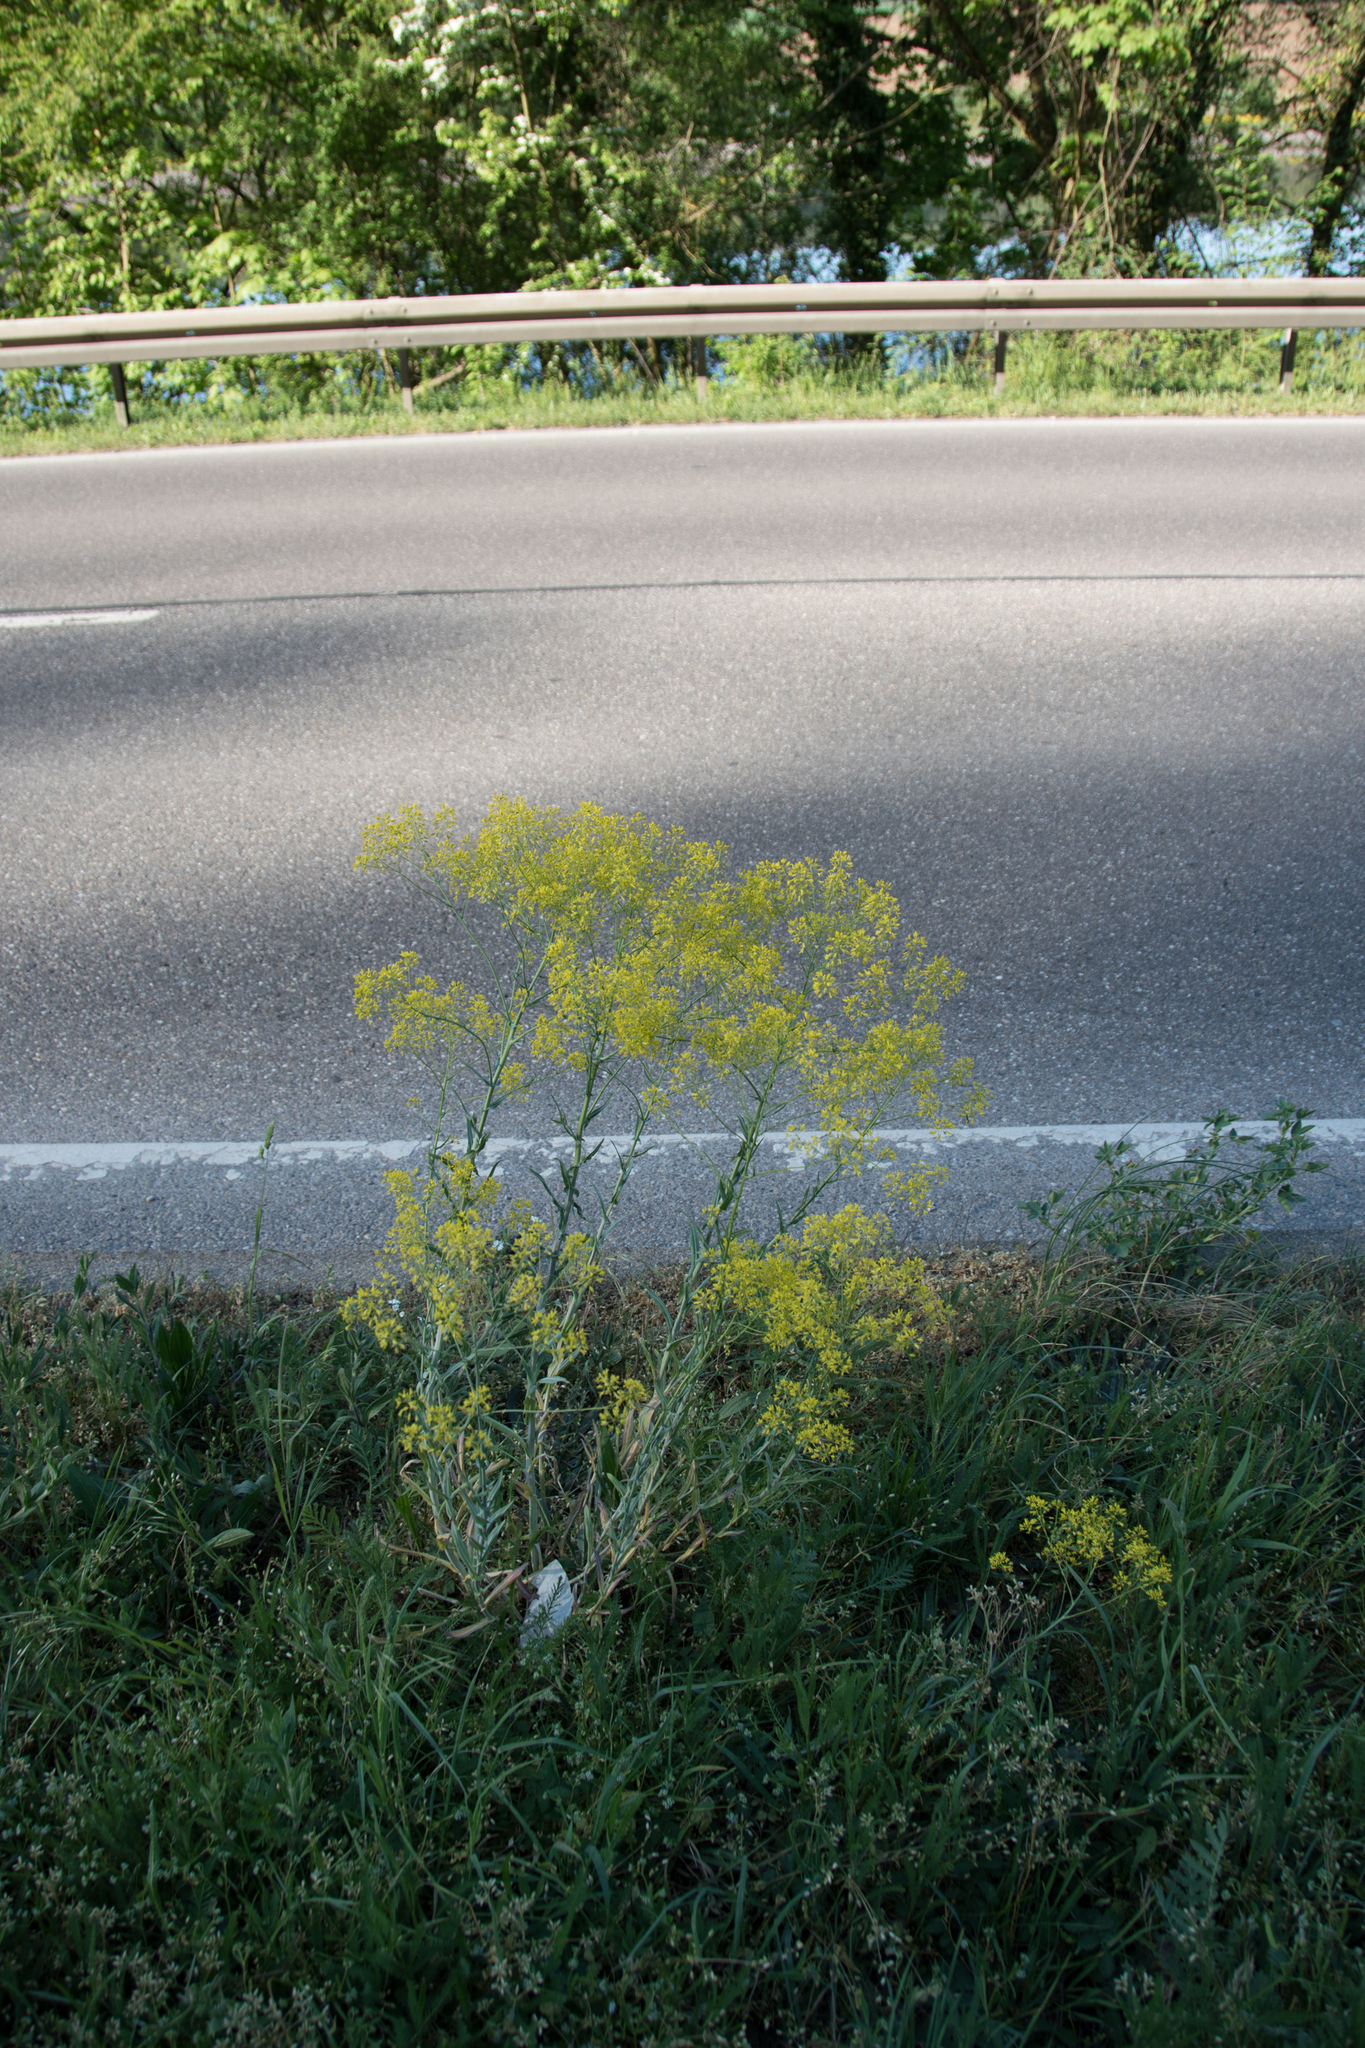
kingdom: Plantae
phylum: Tracheophyta
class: Magnoliopsida
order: Brassicales
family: Brassicaceae
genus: Isatis
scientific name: Isatis tinctoria
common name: Woad
